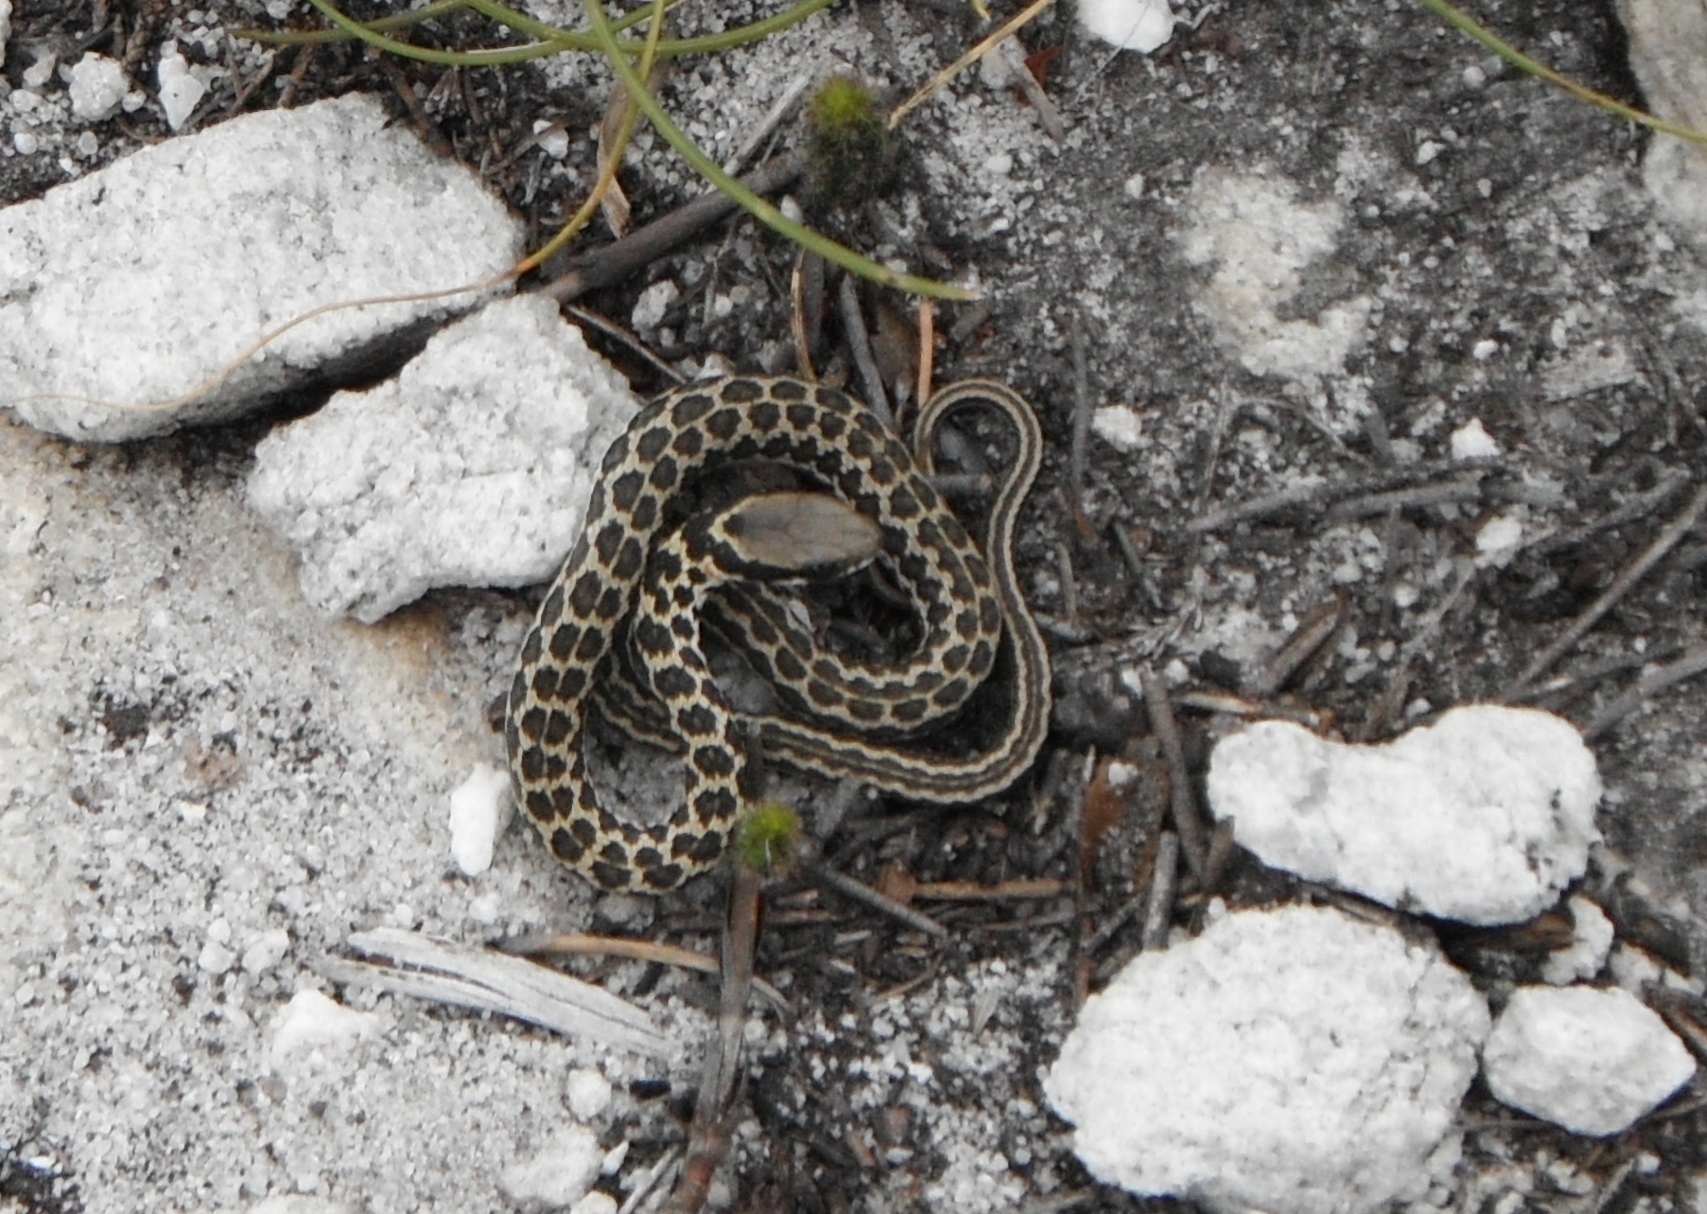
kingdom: Animalia
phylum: Chordata
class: Squamata
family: Psammophiidae
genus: Psammophylax
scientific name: Psammophylax rhombeatus
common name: Rhombic skaapsteker
